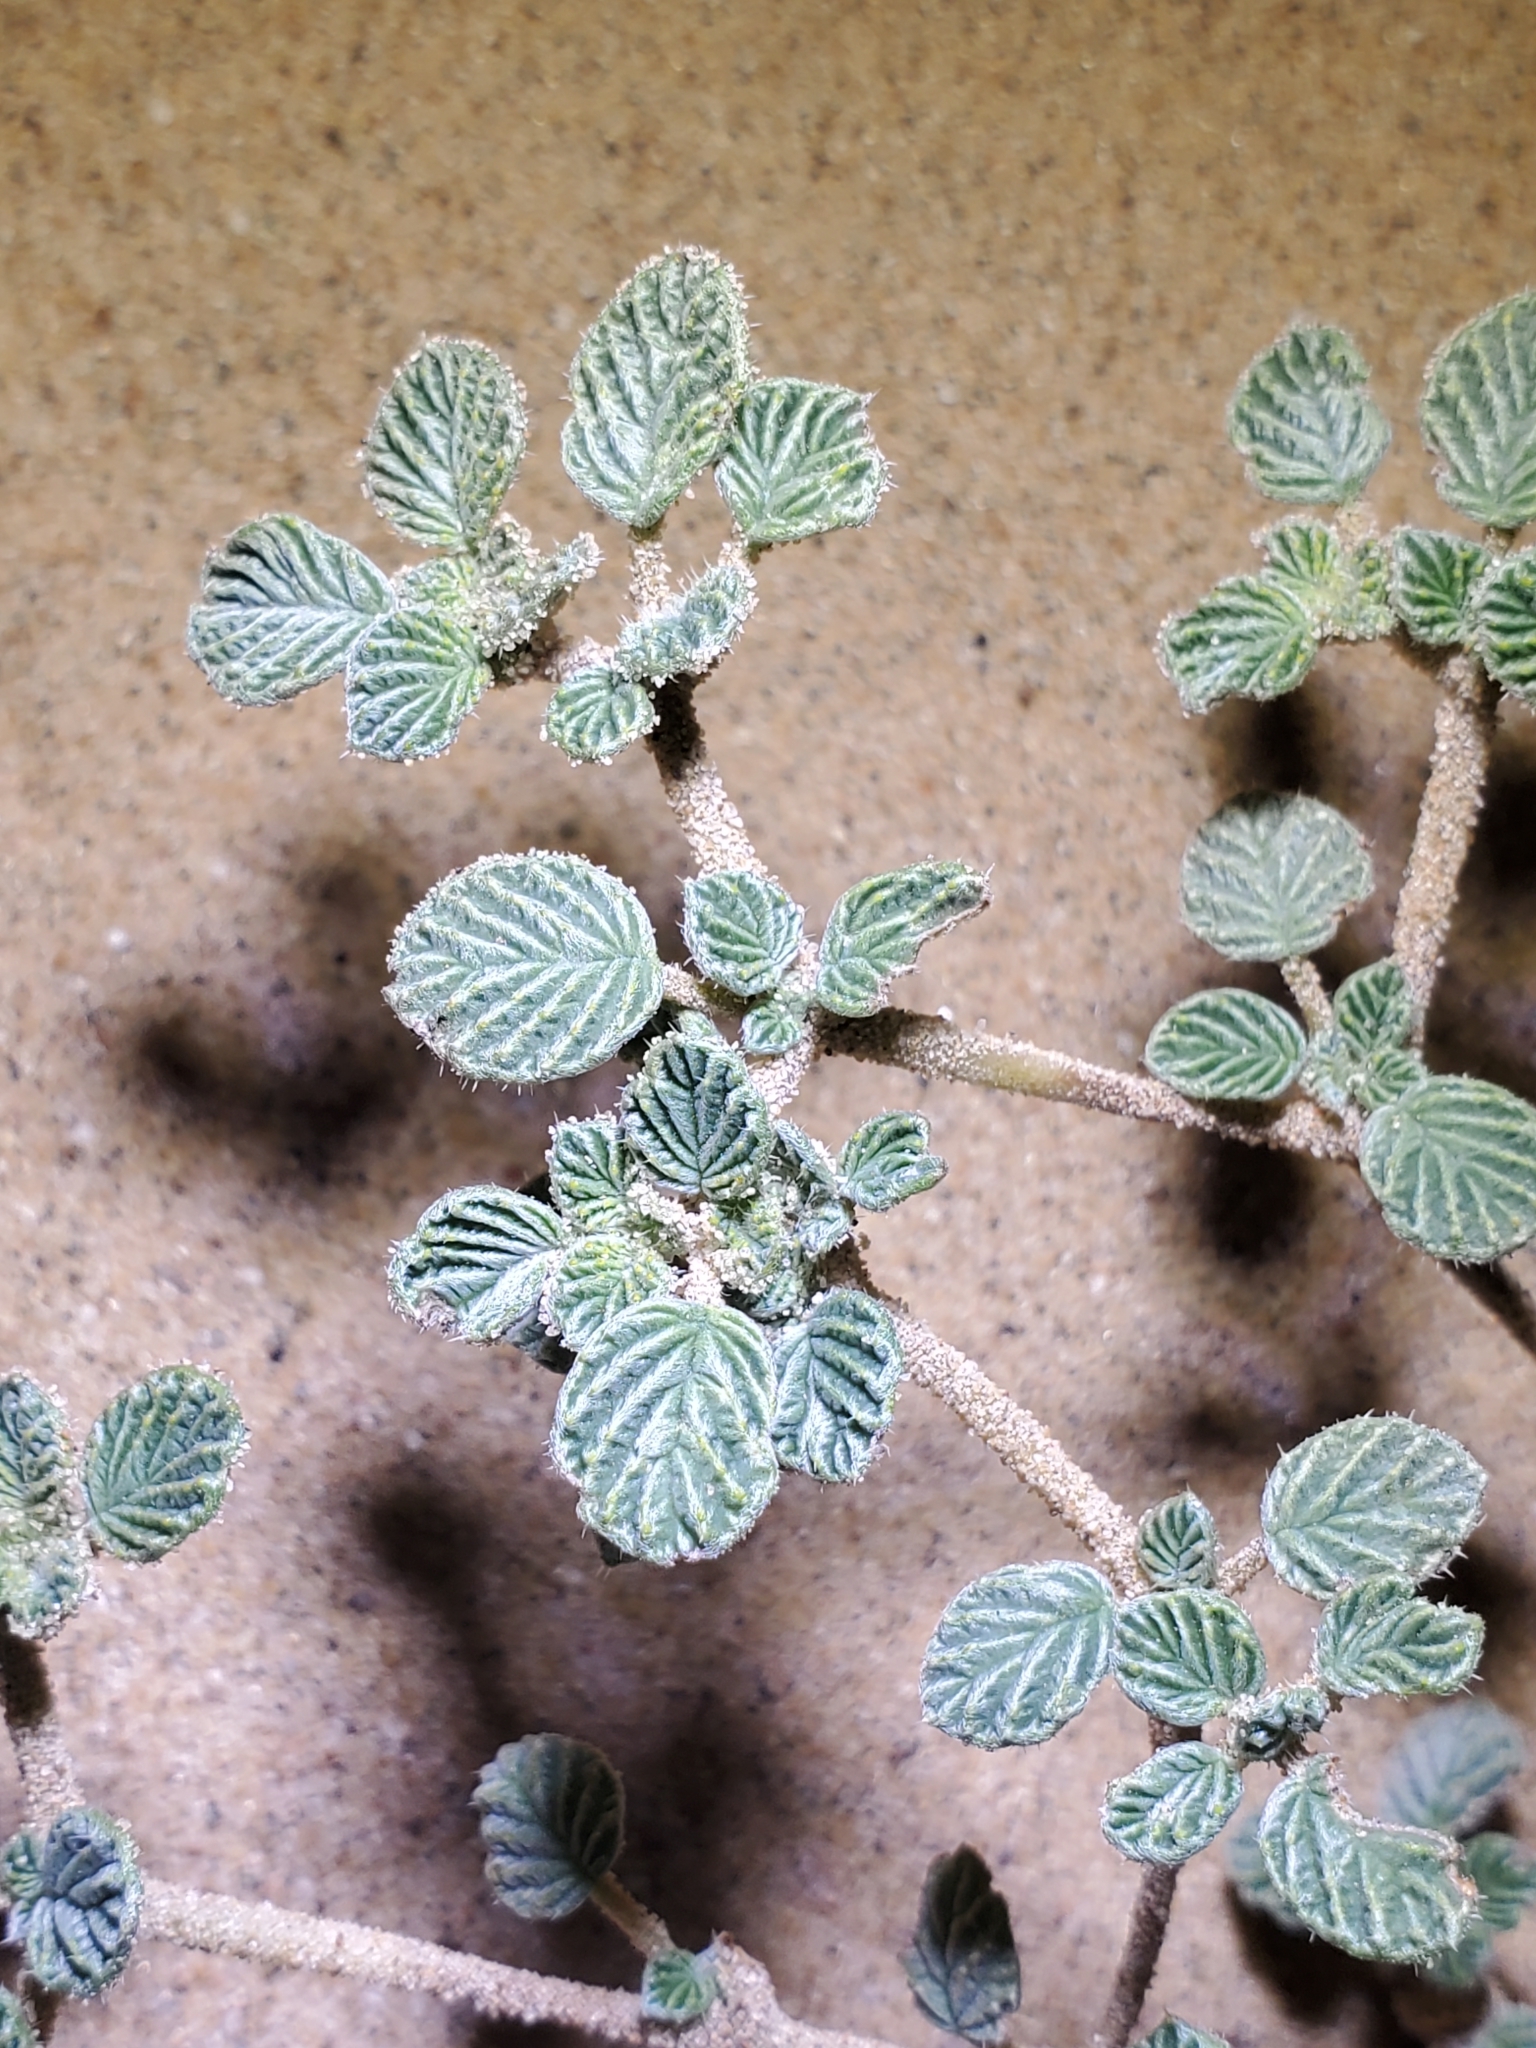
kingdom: Plantae
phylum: Tracheophyta
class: Magnoliopsida
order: Boraginales
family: Ehretiaceae
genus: Tiquilia
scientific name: Tiquilia plicata
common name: Fan-leaf tiquilia
